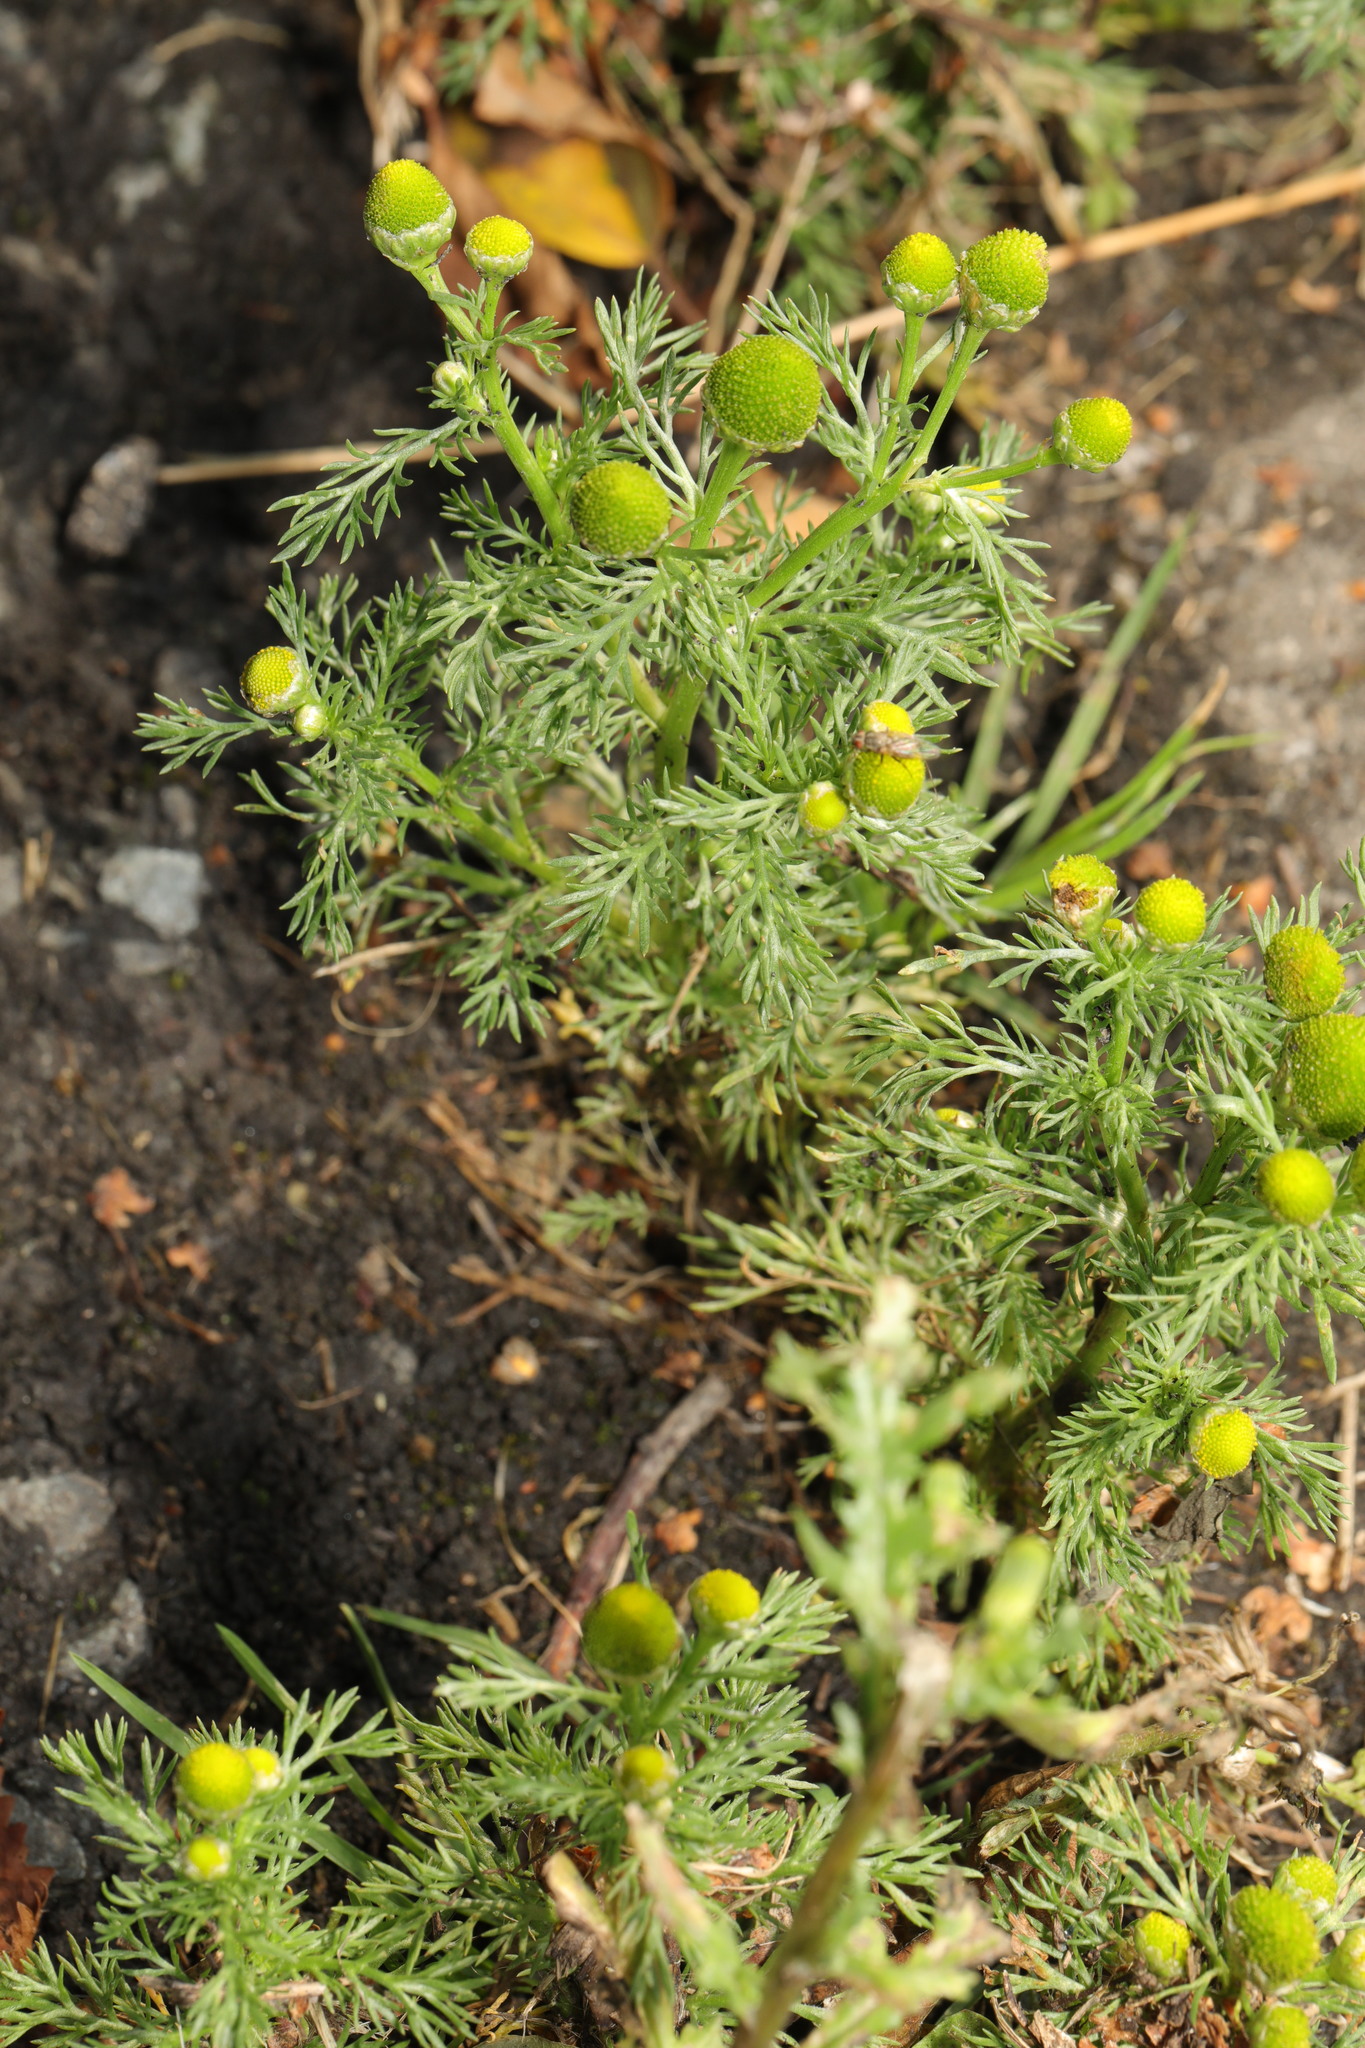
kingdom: Plantae
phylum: Tracheophyta
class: Magnoliopsida
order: Asterales
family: Asteraceae
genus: Matricaria
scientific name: Matricaria discoidea
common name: Disc mayweed
